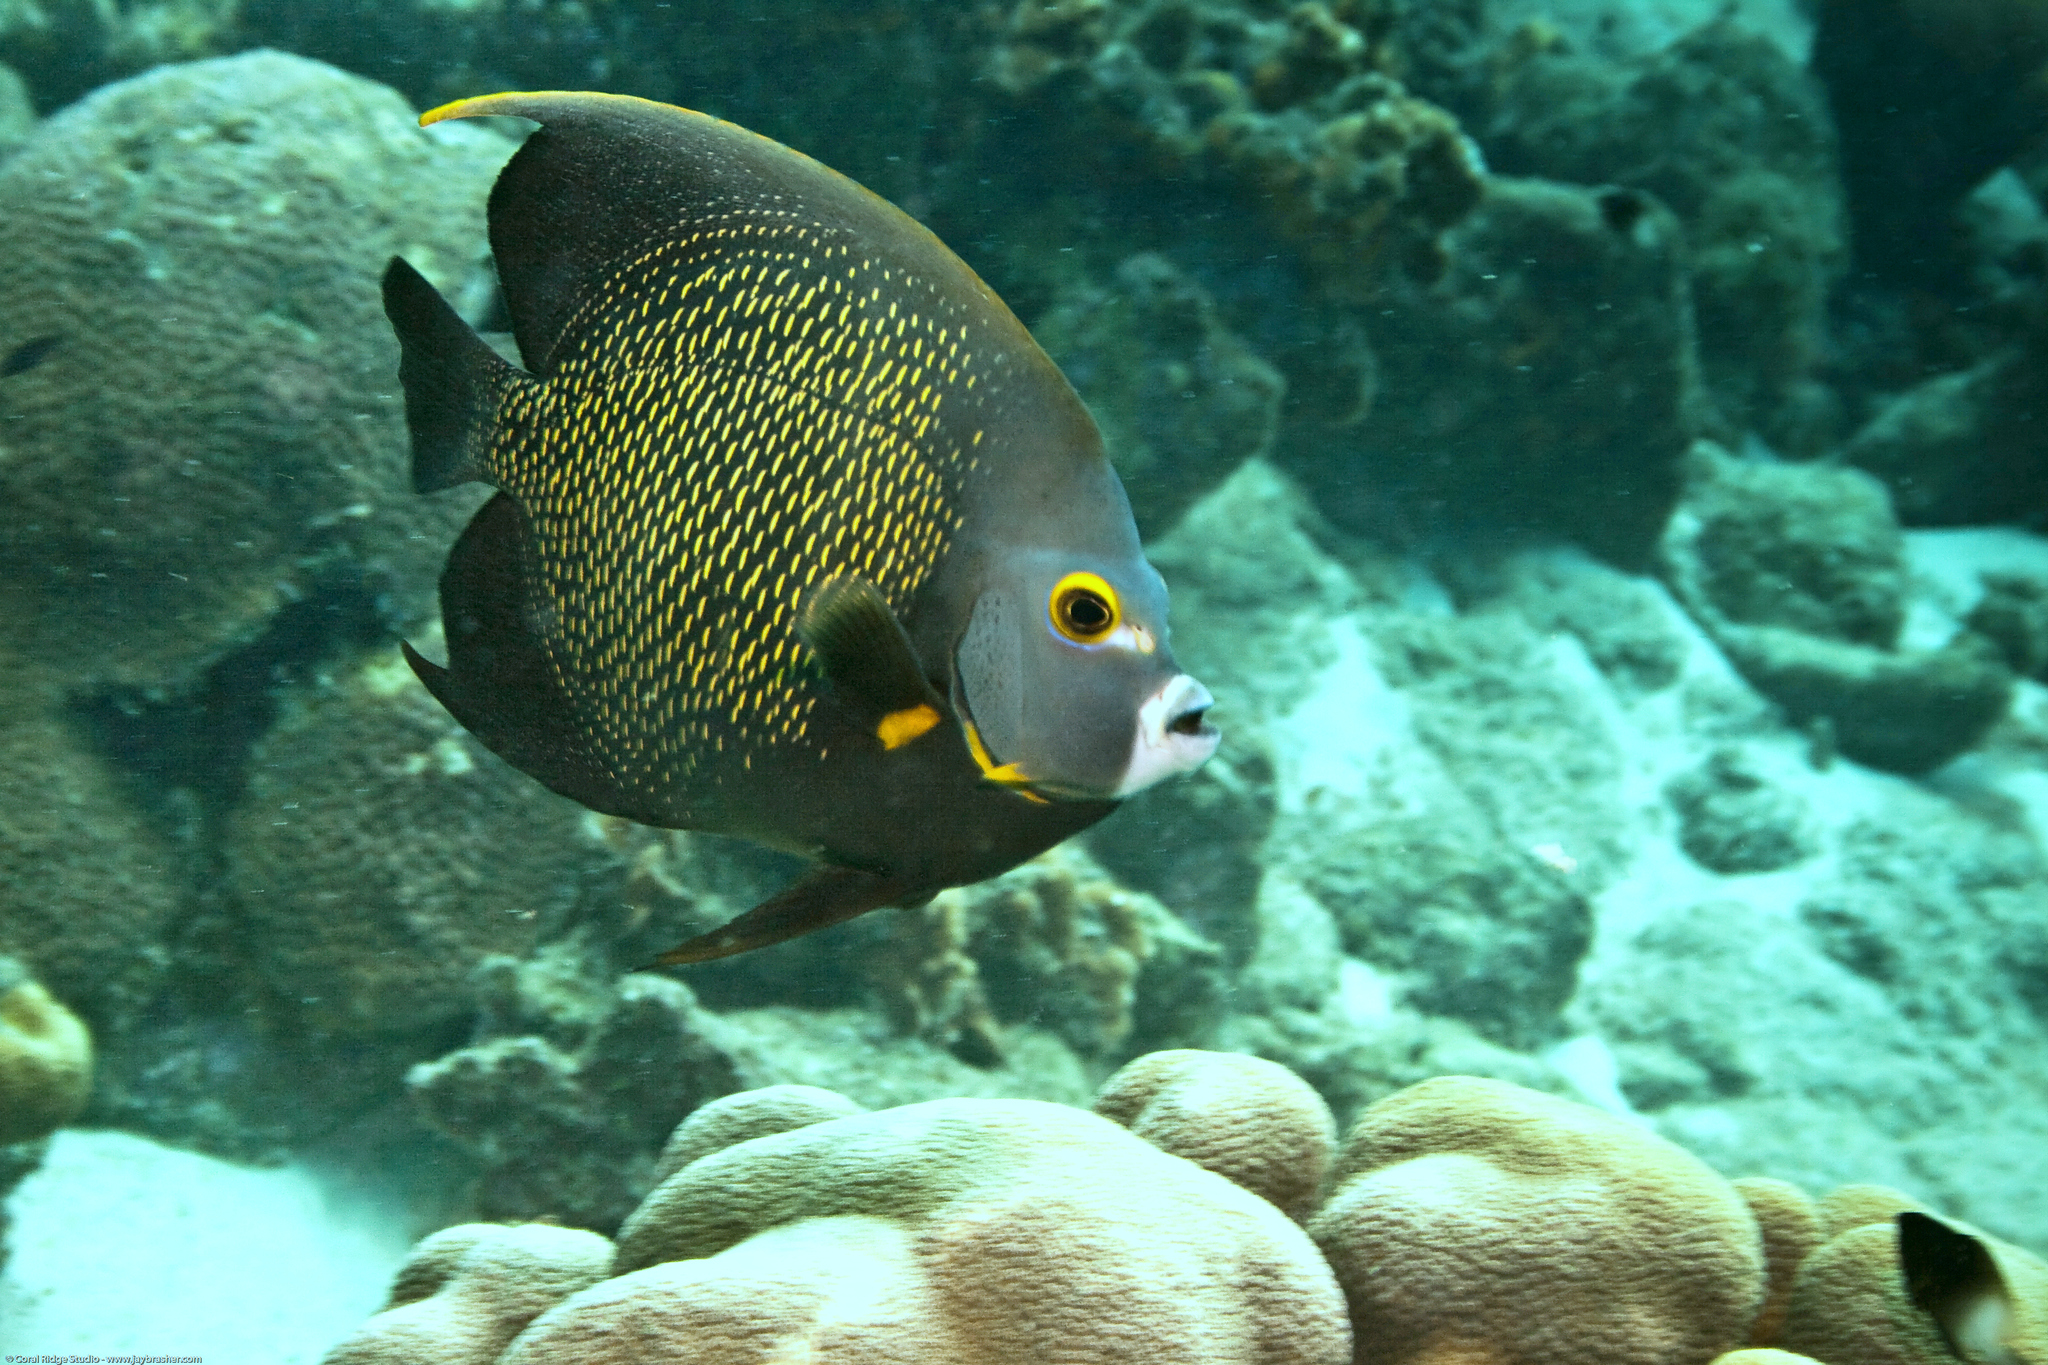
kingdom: Animalia
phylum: Chordata
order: Perciformes
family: Pomacanthidae
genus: Pomacanthus
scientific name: Pomacanthus paru
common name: French angelfish
